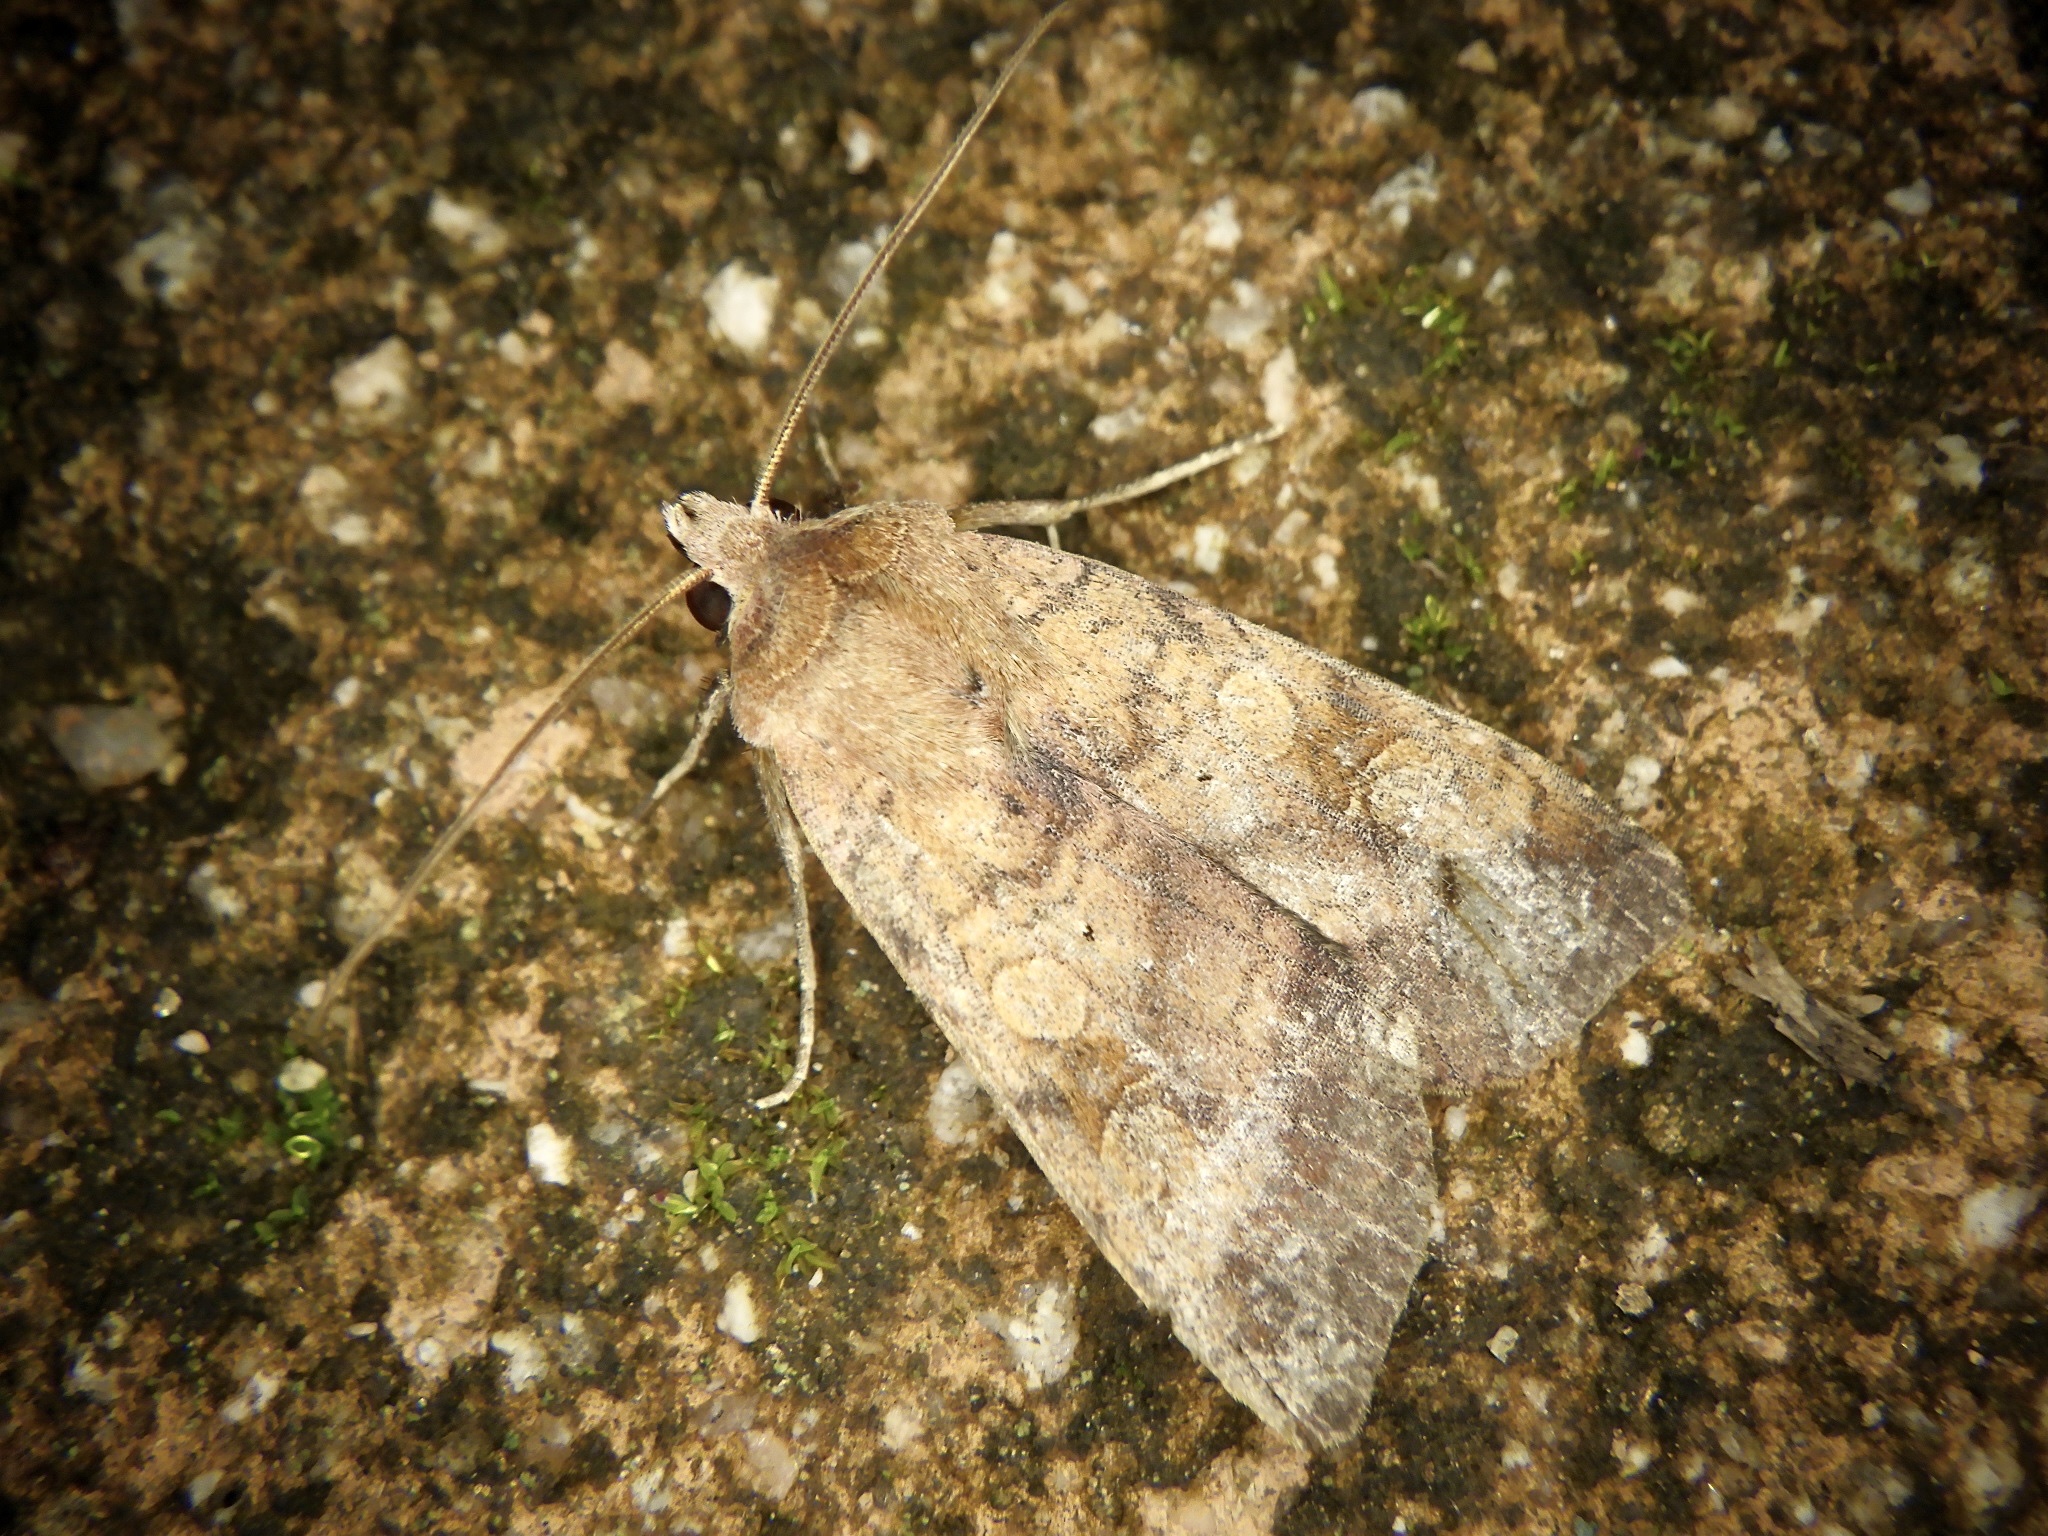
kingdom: Animalia
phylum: Arthropoda
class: Insecta
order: Lepidoptera
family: Noctuidae
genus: Diarsia
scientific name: Diarsia deparca
